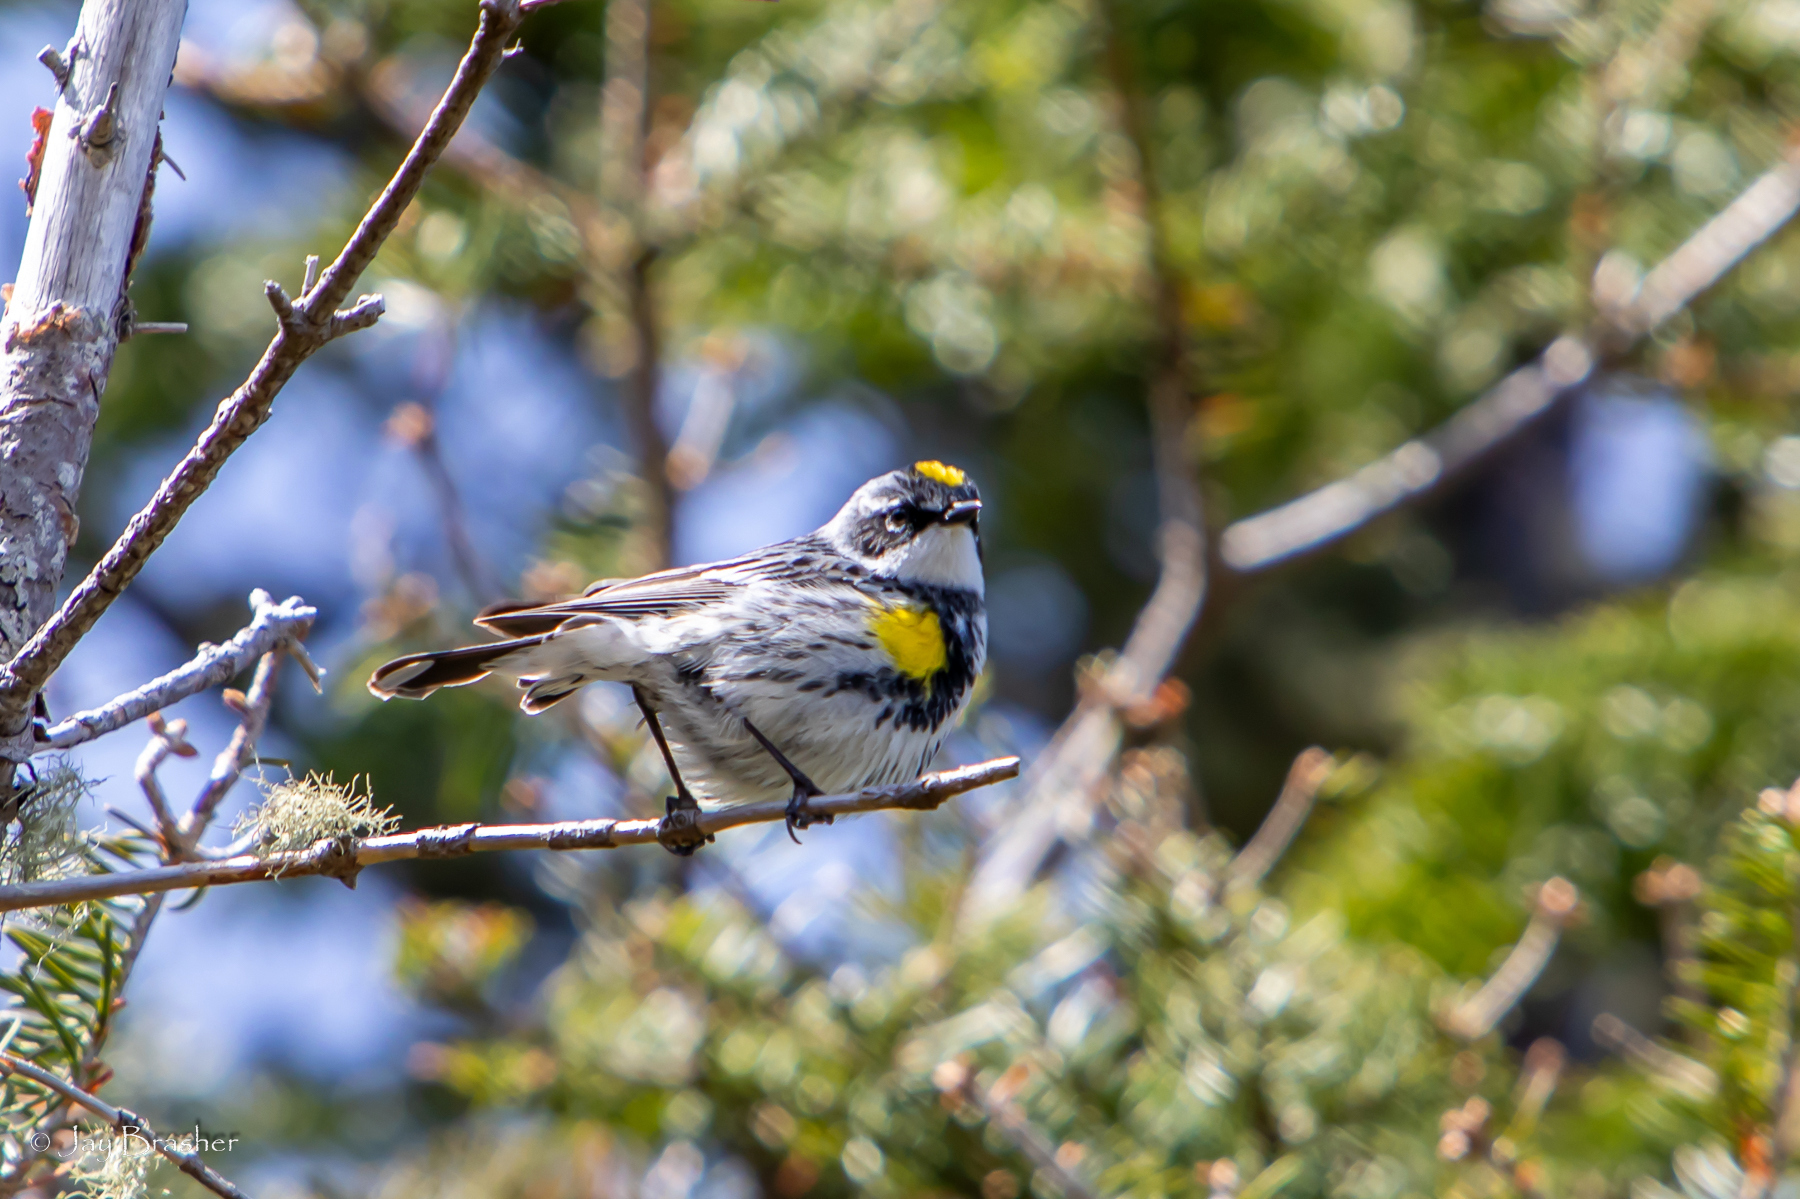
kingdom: Animalia
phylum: Chordata
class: Aves
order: Passeriformes
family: Parulidae
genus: Setophaga
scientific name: Setophaga coronata
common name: Myrtle warbler
